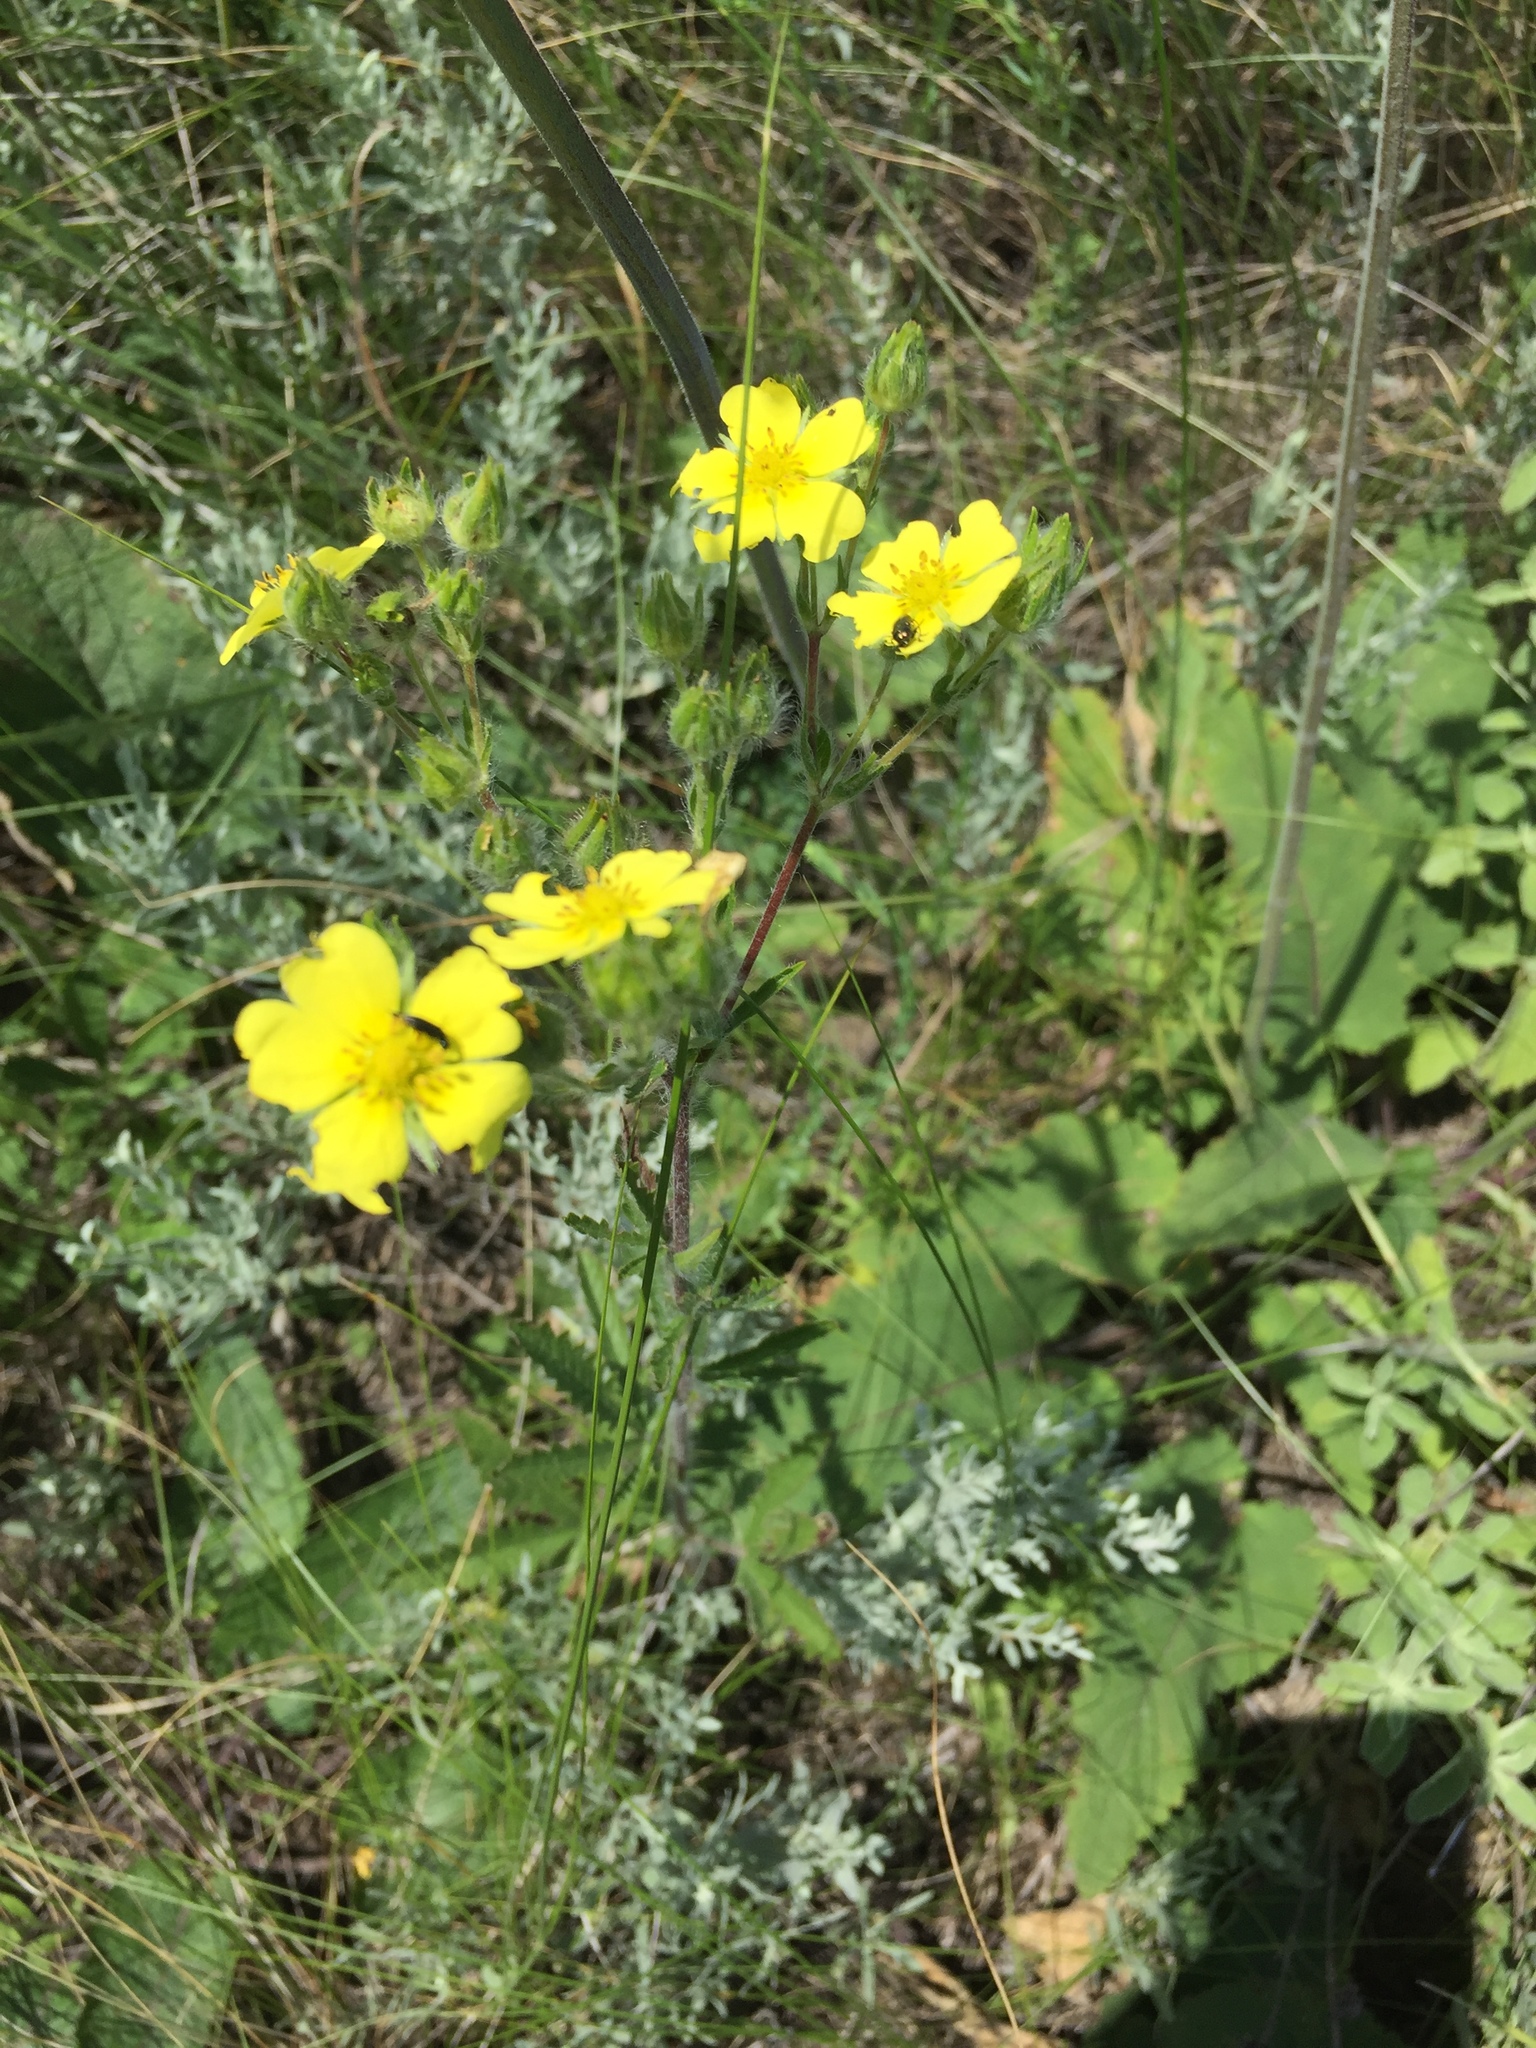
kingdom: Plantae
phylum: Tracheophyta
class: Magnoliopsida
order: Rosales
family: Rosaceae
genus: Potentilla
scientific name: Potentilla argentea
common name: Hoary cinquefoil
